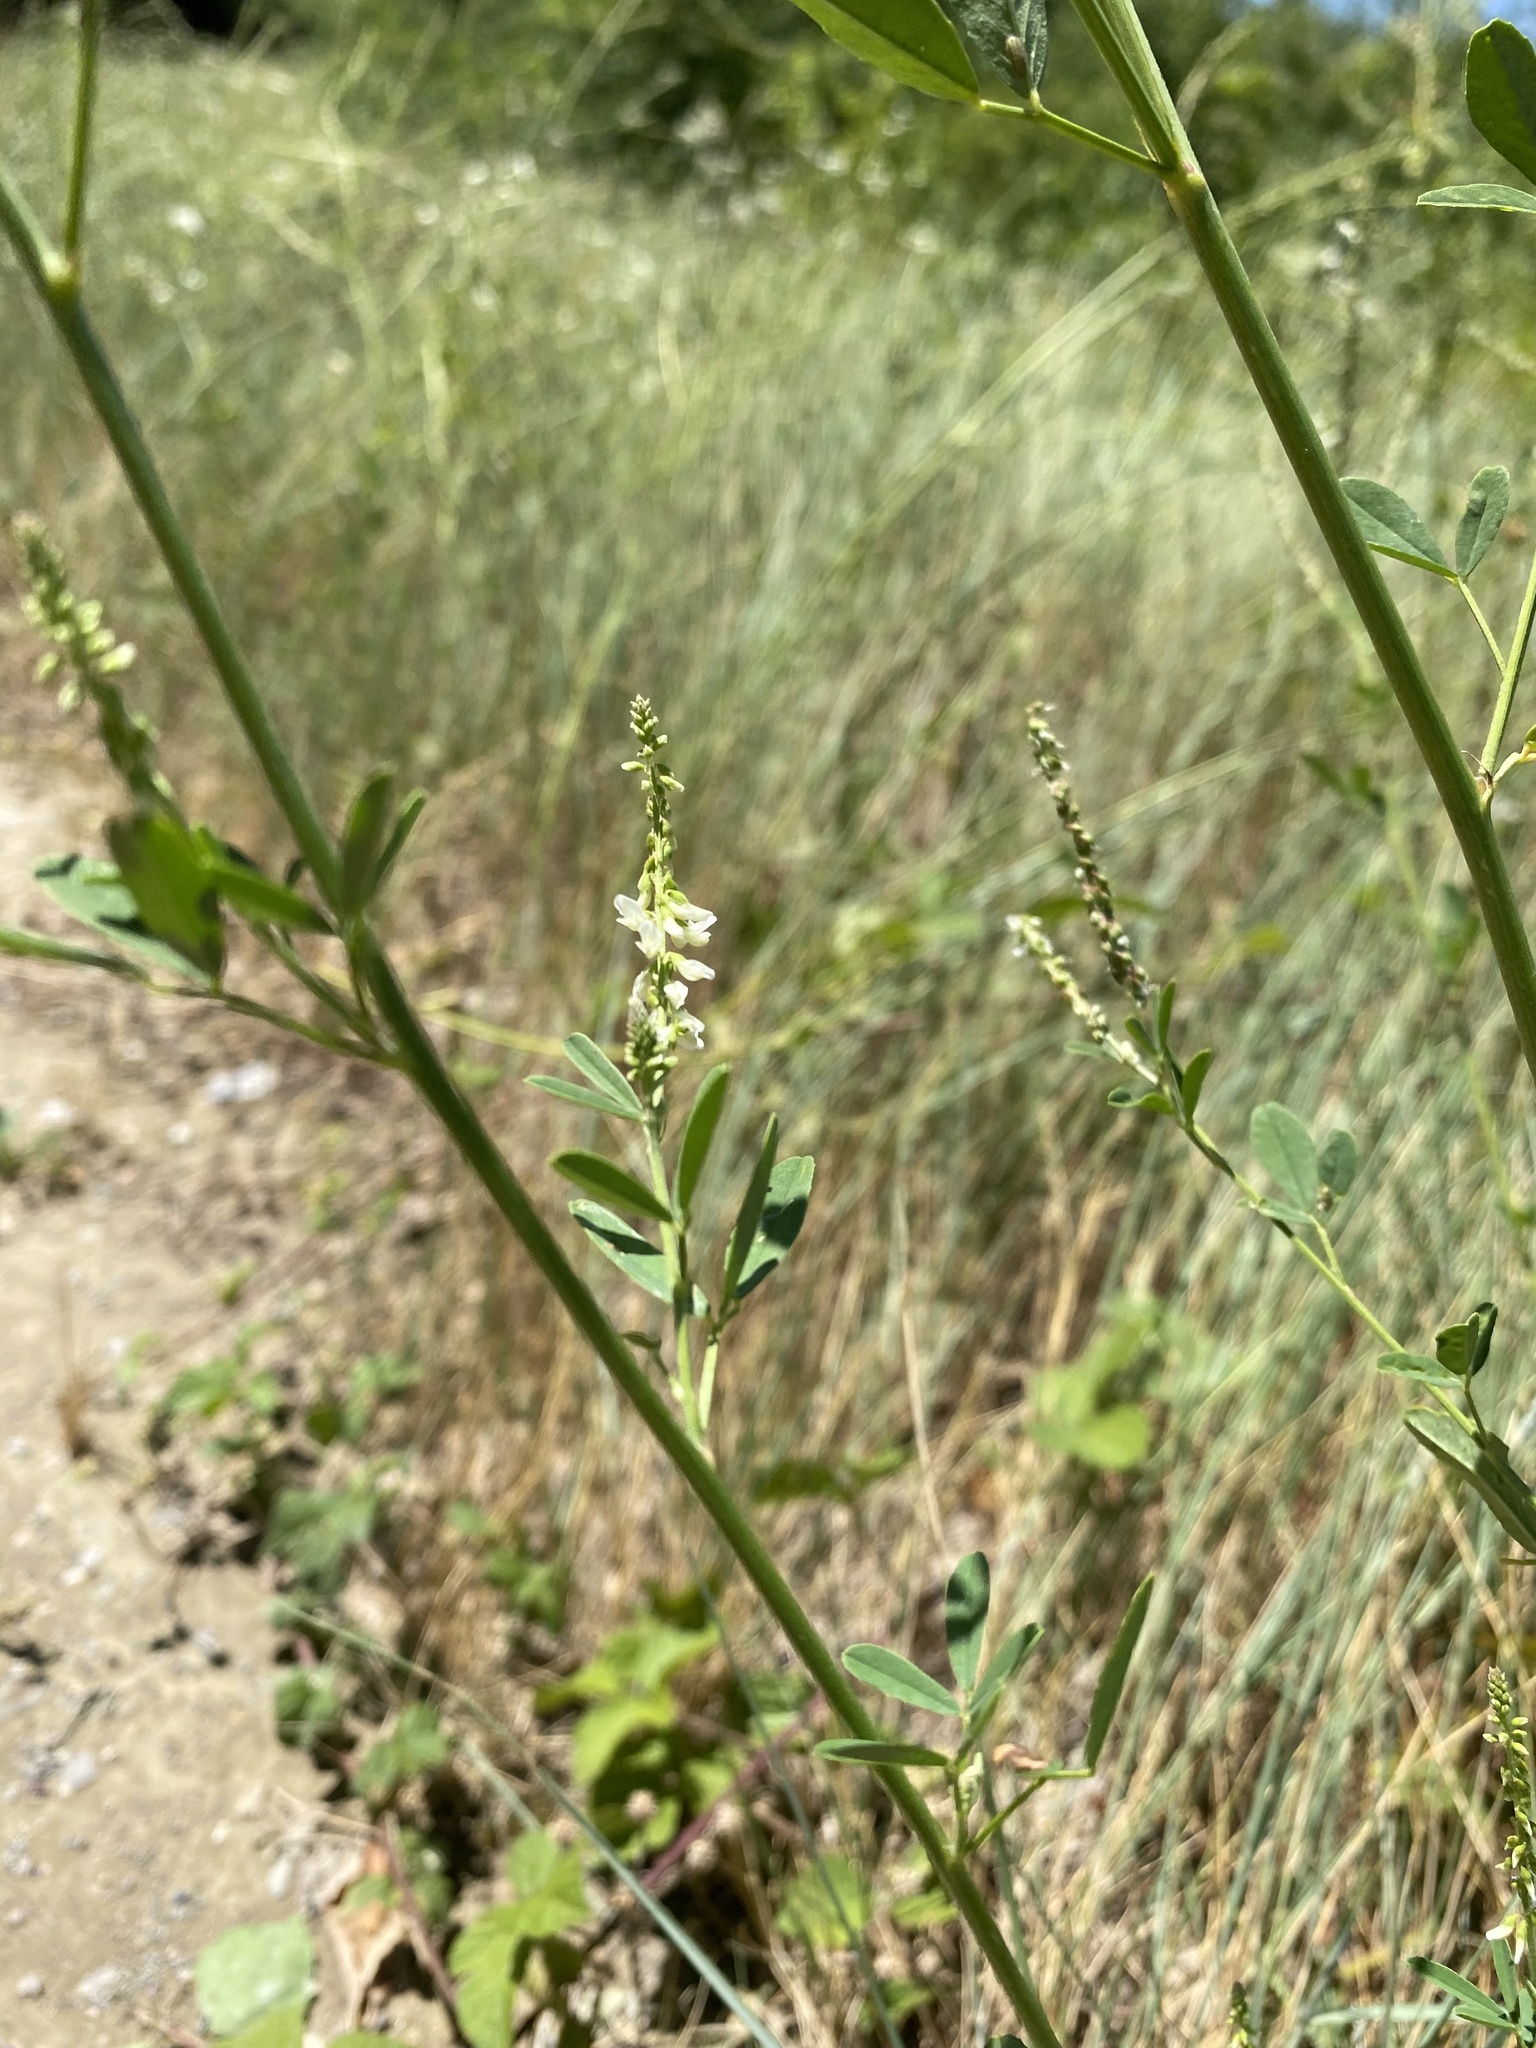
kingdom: Plantae
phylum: Tracheophyta
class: Magnoliopsida
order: Fabales
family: Fabaceae
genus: Melilotus
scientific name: Melilotus albus
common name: White melilot
